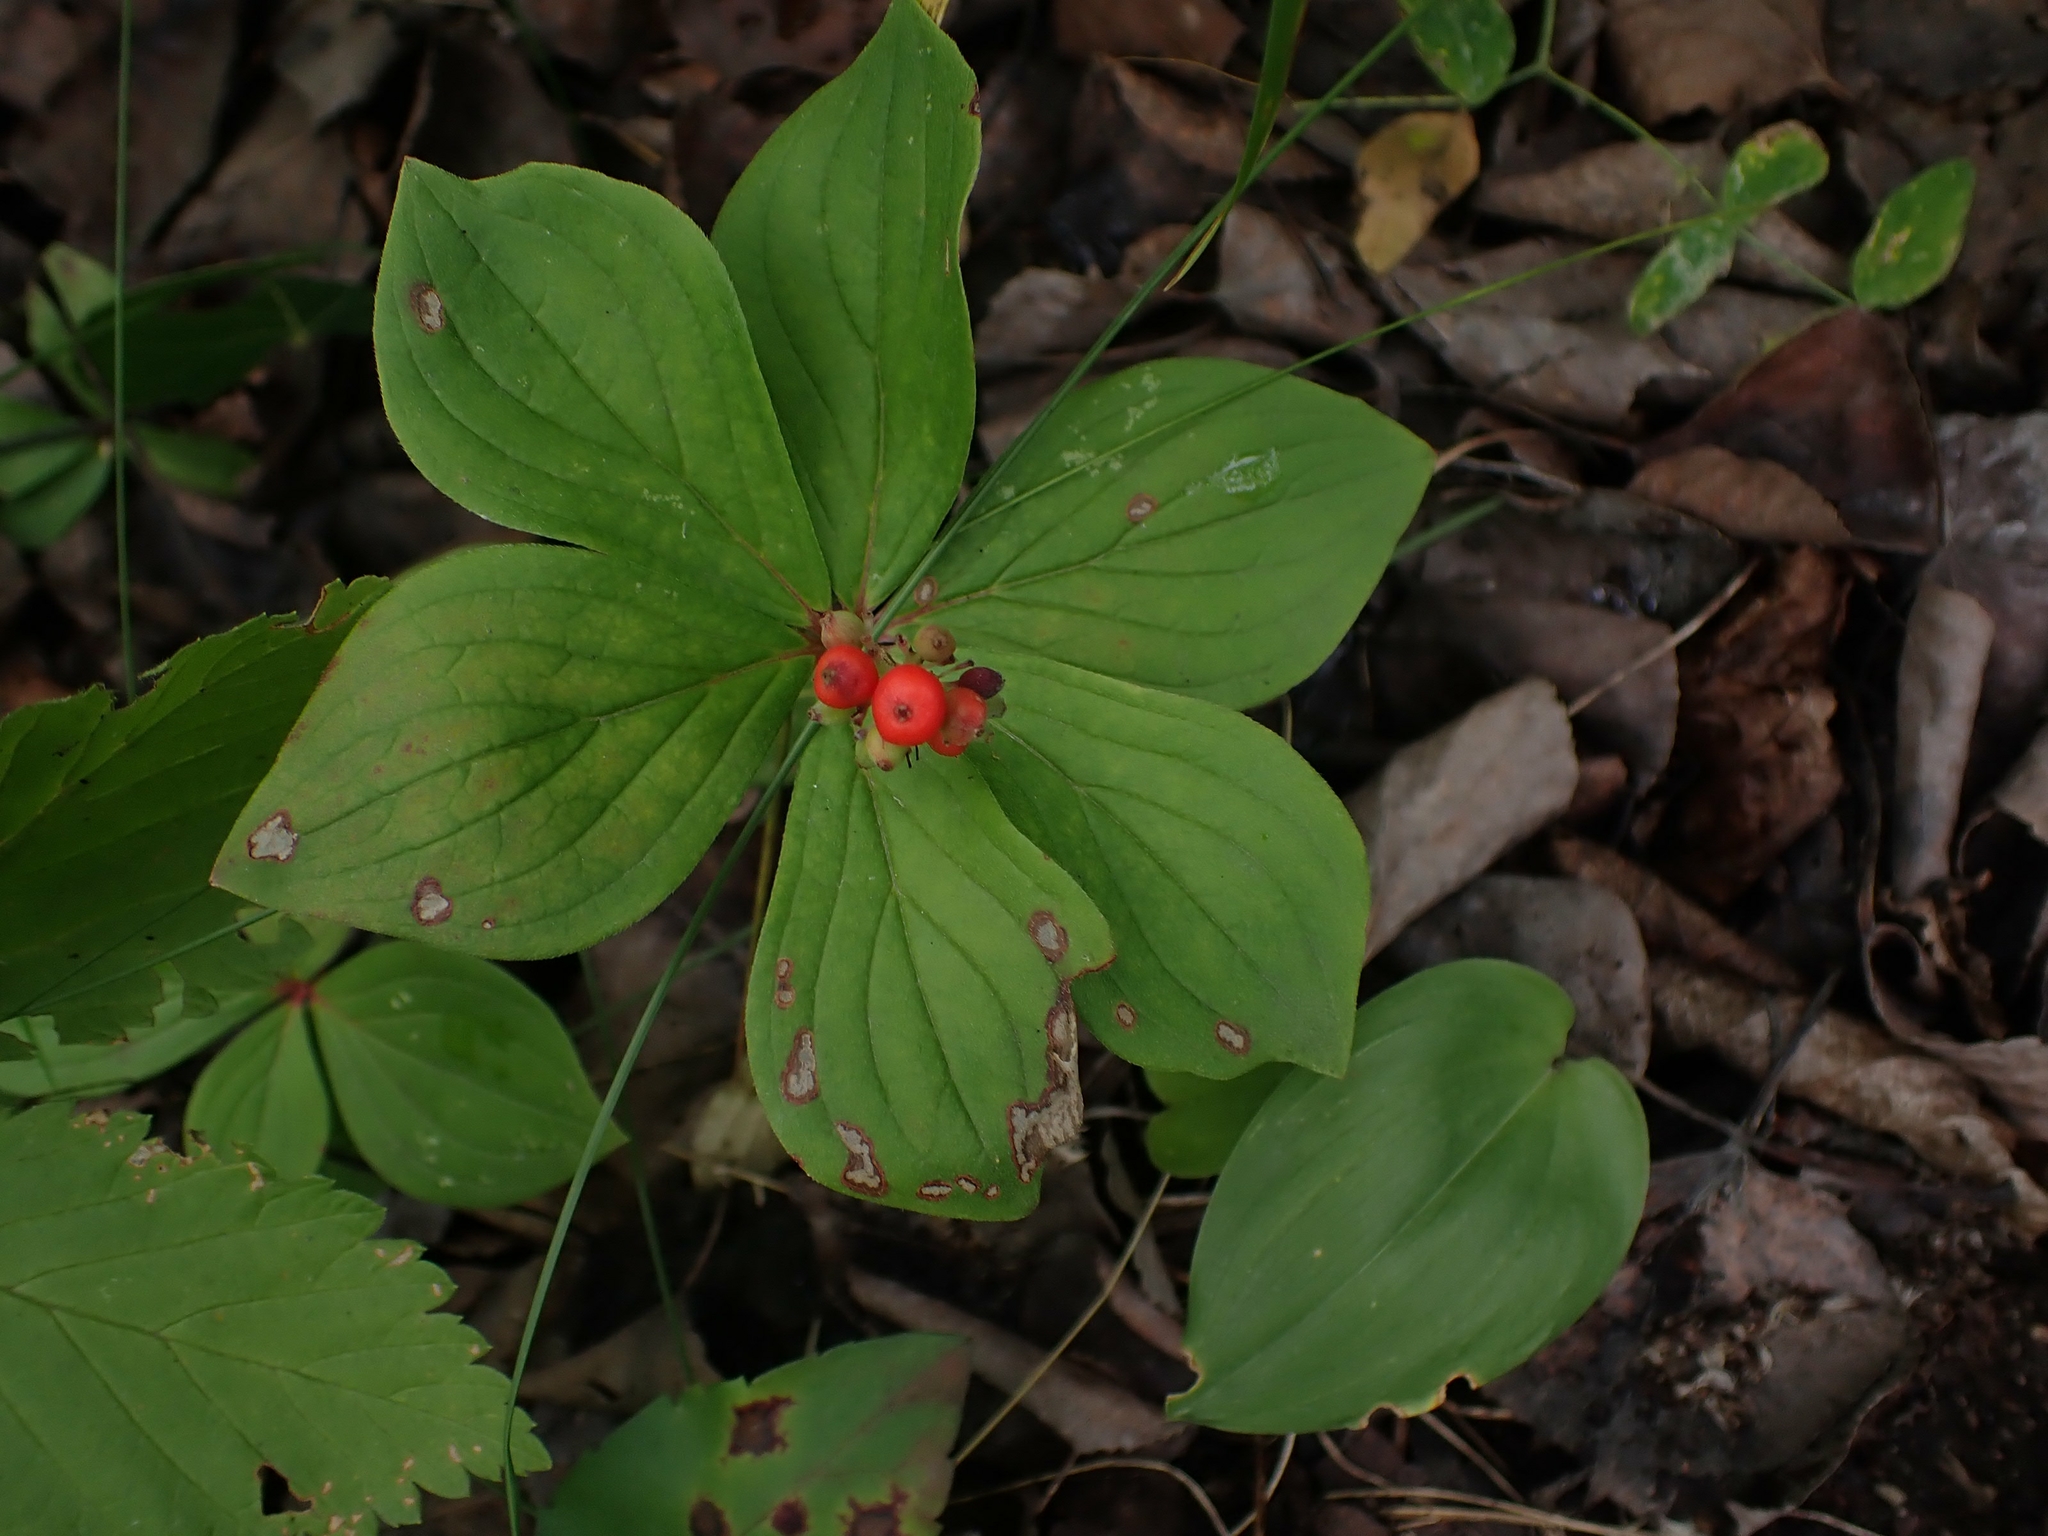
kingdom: Plantae
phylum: Tracheophyta
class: Magnoliopsida
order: Cornales
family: Cornaceae
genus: Cornus
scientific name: Cornus canadensis
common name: Creeping dogwood
